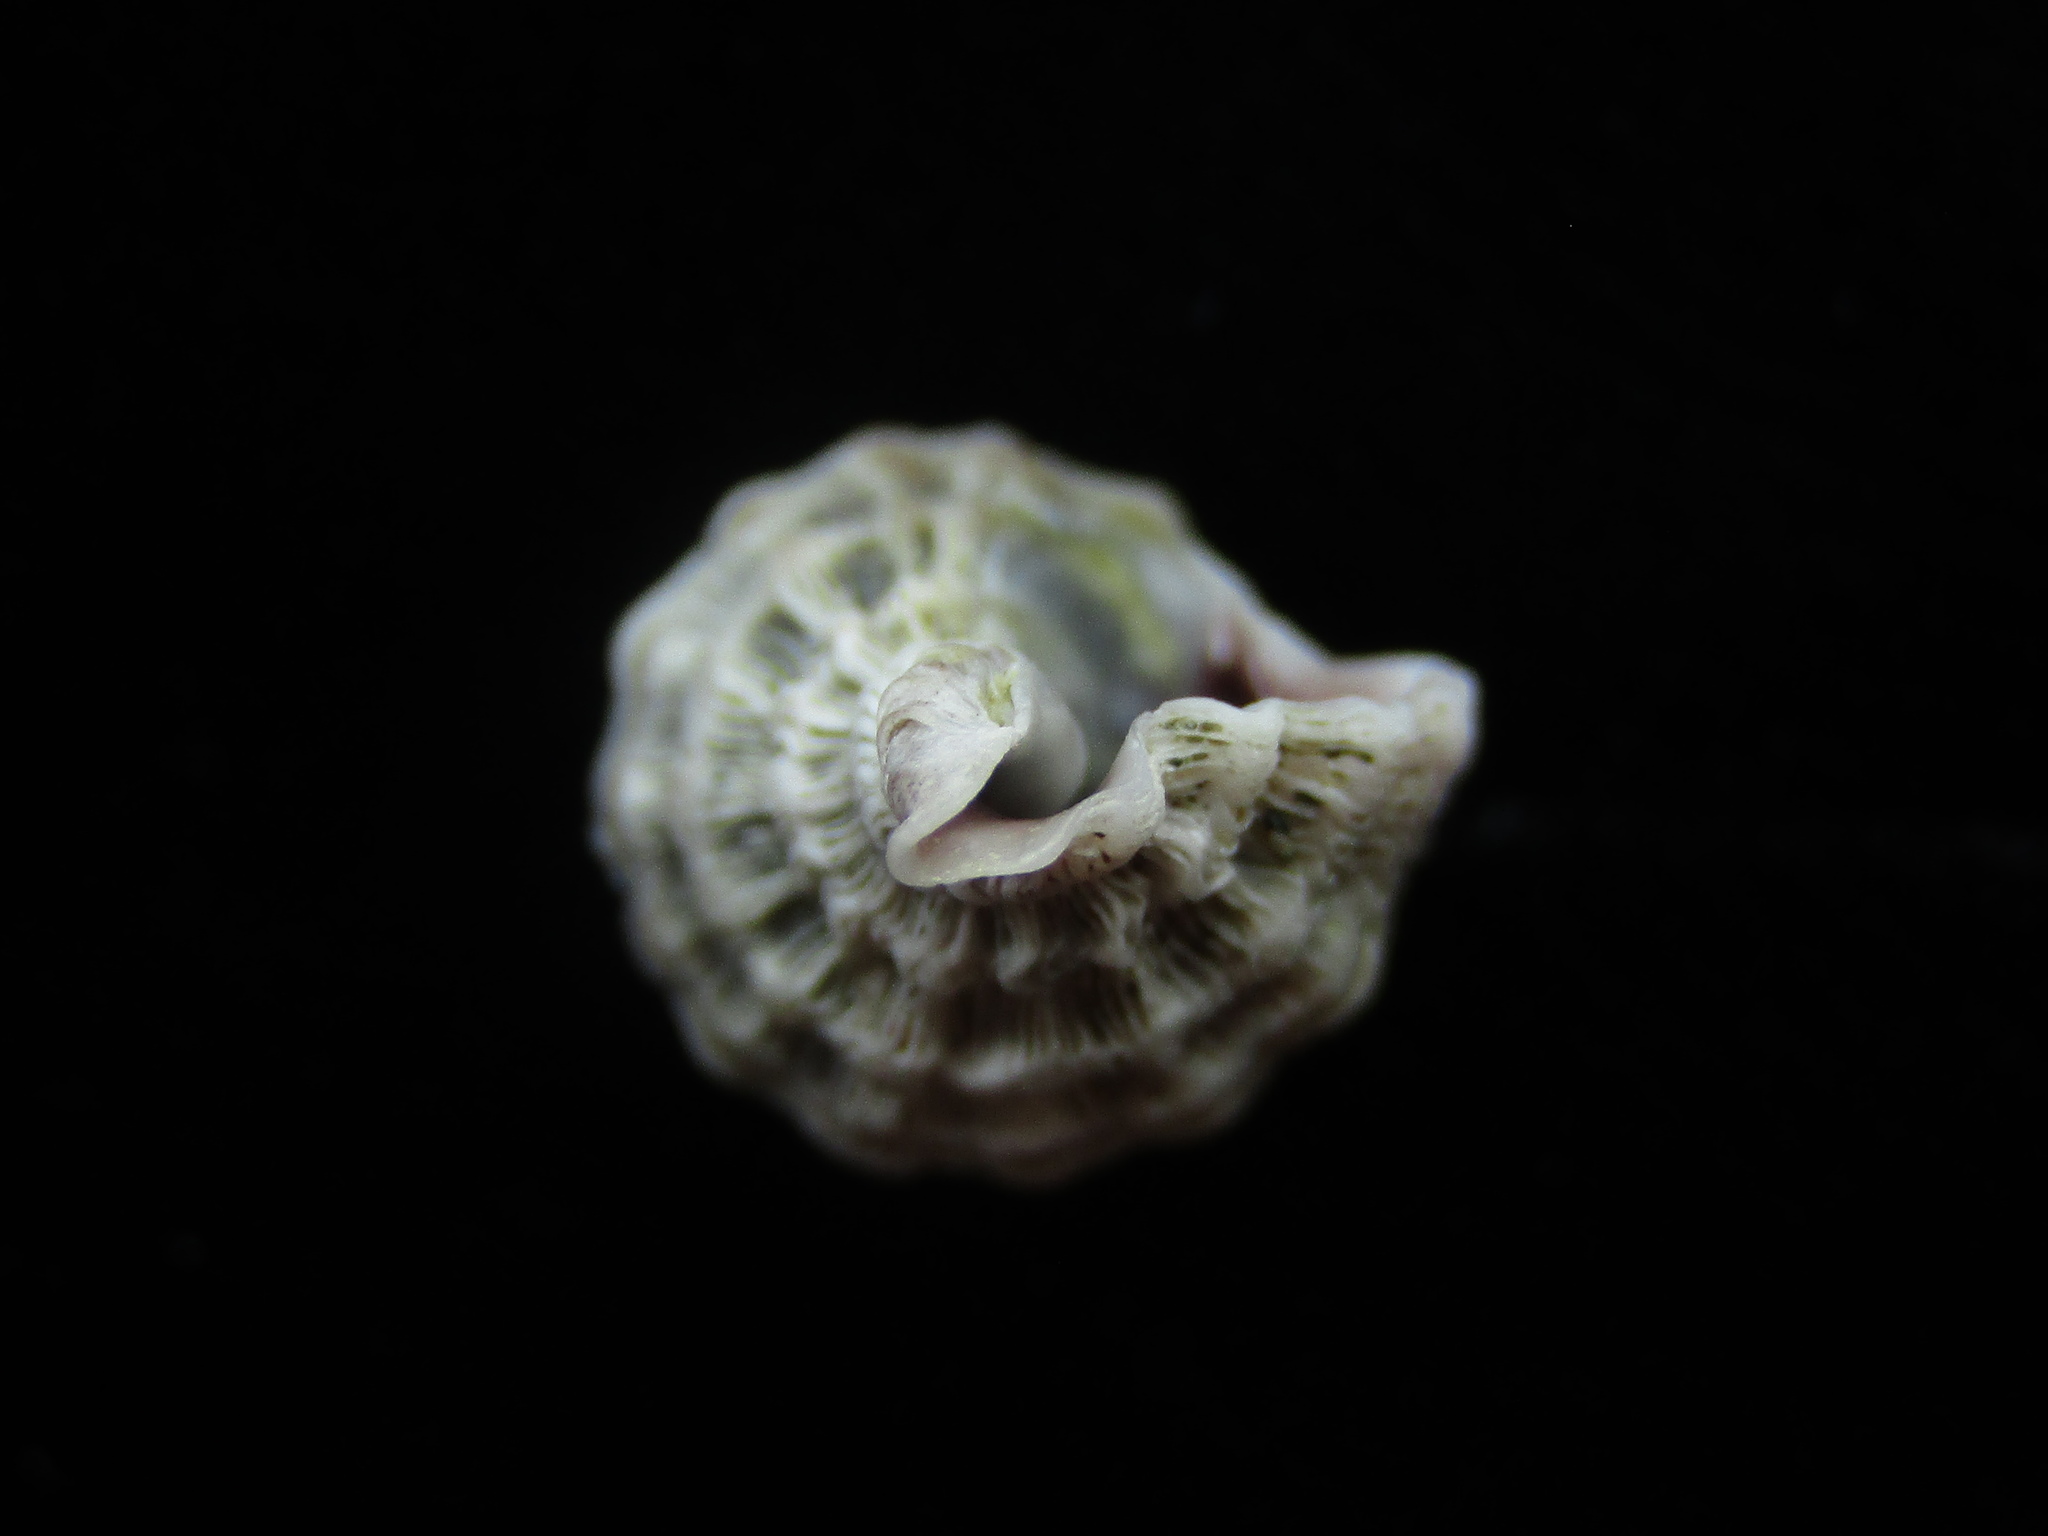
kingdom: Animalia
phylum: Mollusca
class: Gastropoda
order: Neogastropoda
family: Muricidae
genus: Paratrophon
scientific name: Paratrophon quoyi
